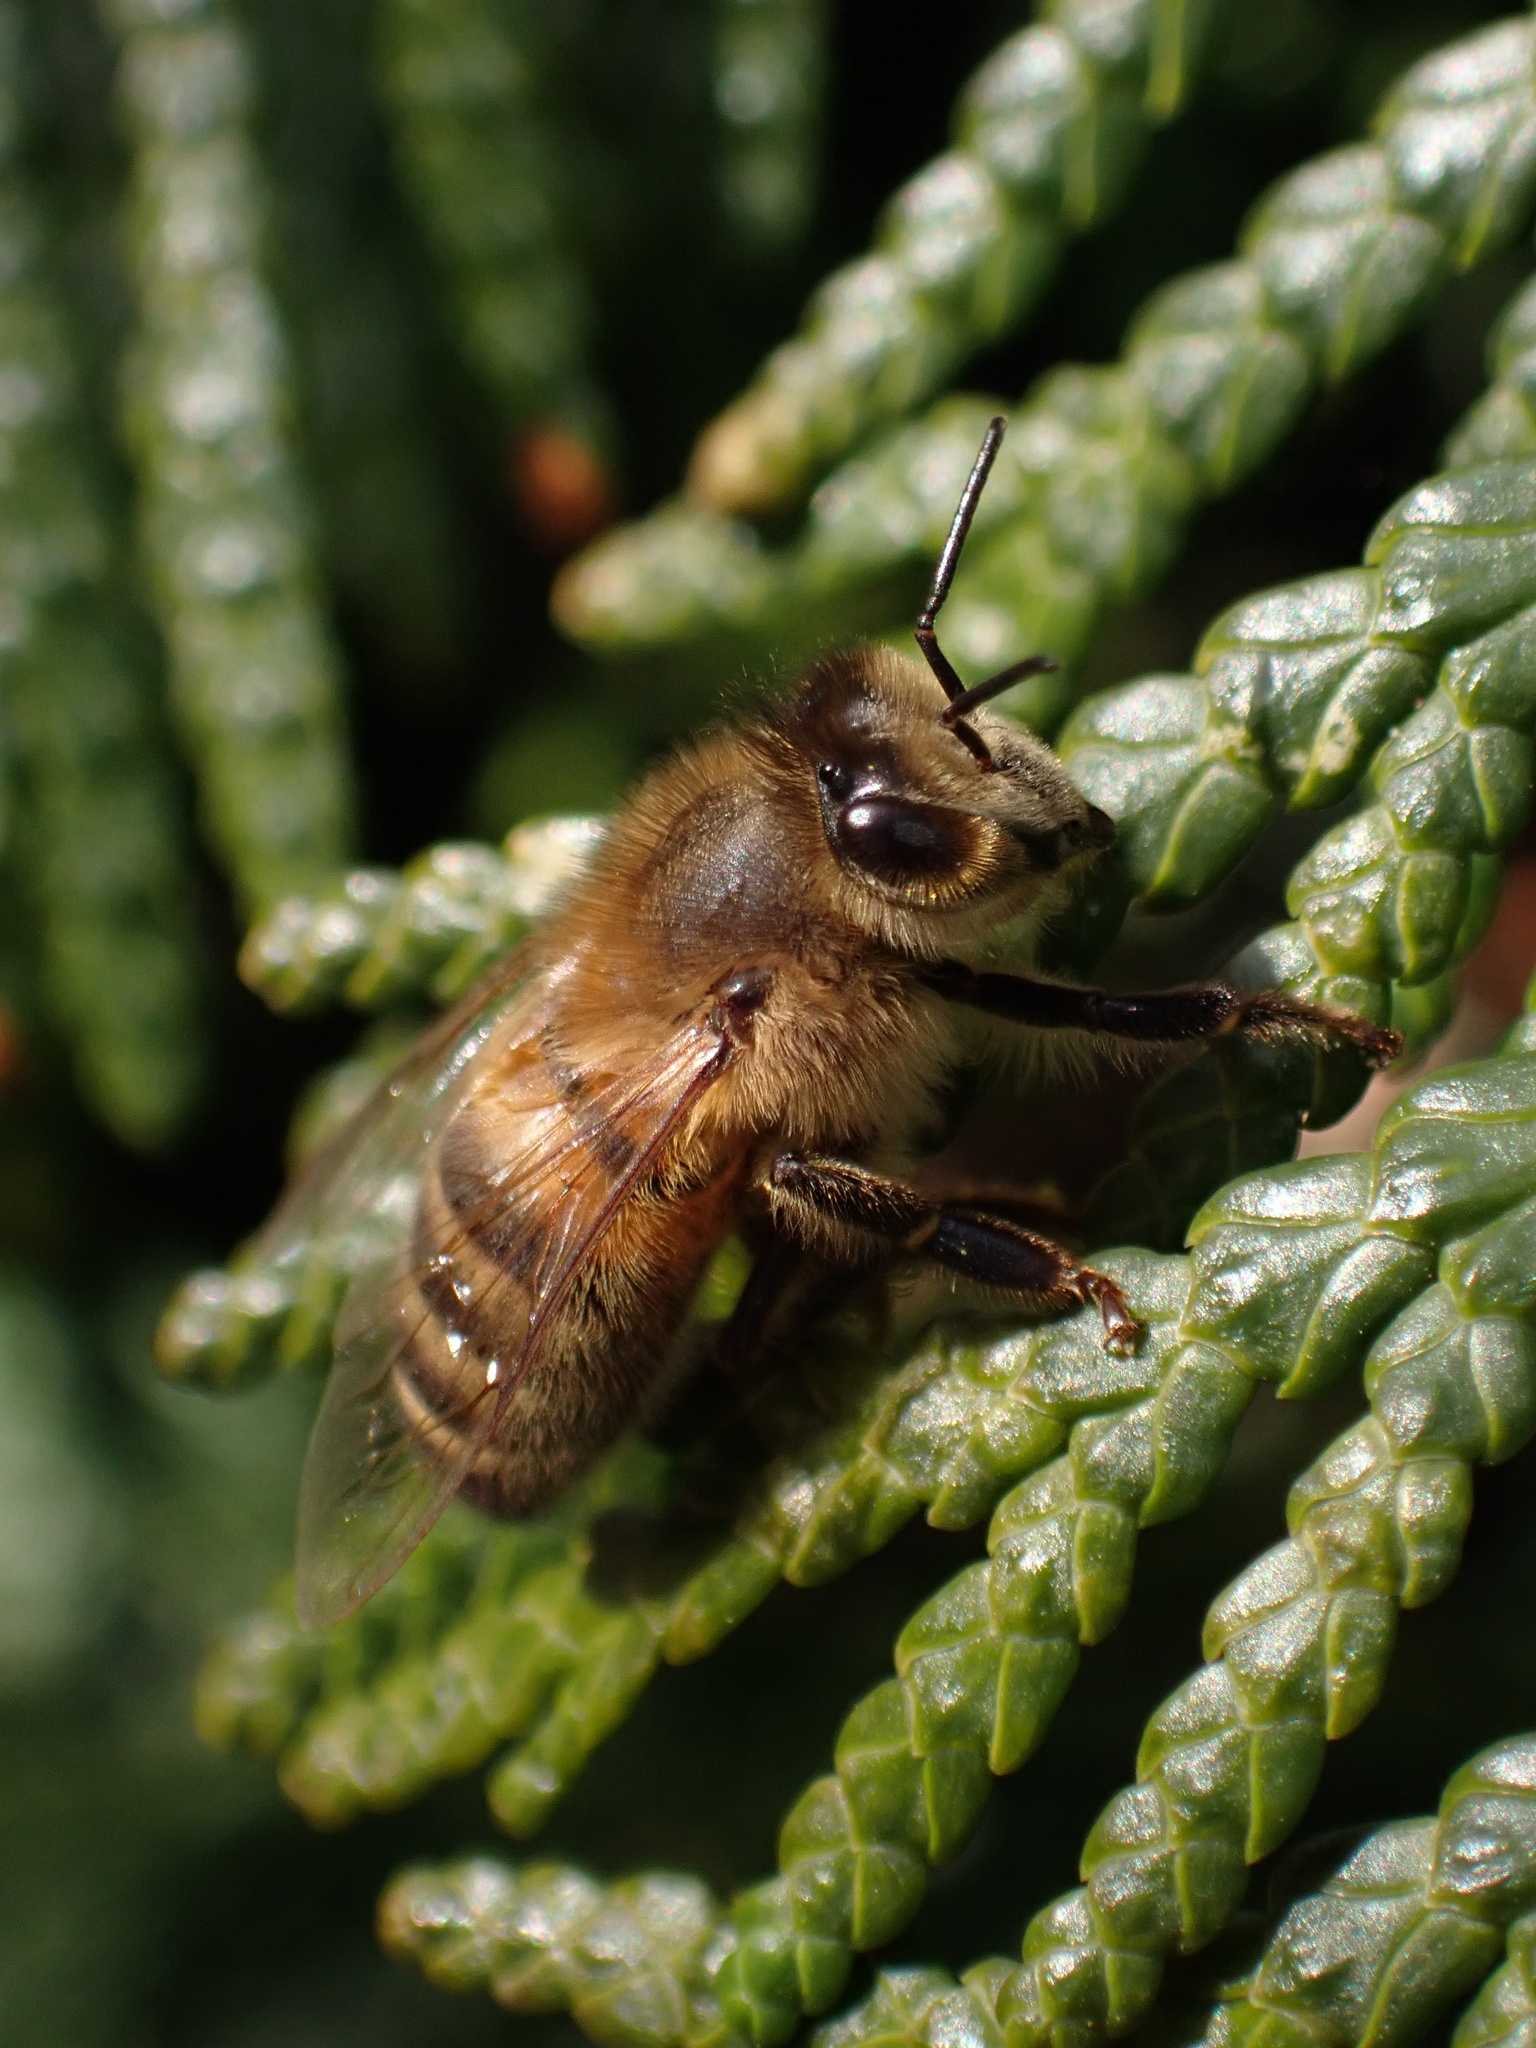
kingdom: Animalia
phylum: Arthropoda
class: Insecta
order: Hymenoptera
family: Apidae
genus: Apis
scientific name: Apis mellifera
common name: Honey bee
